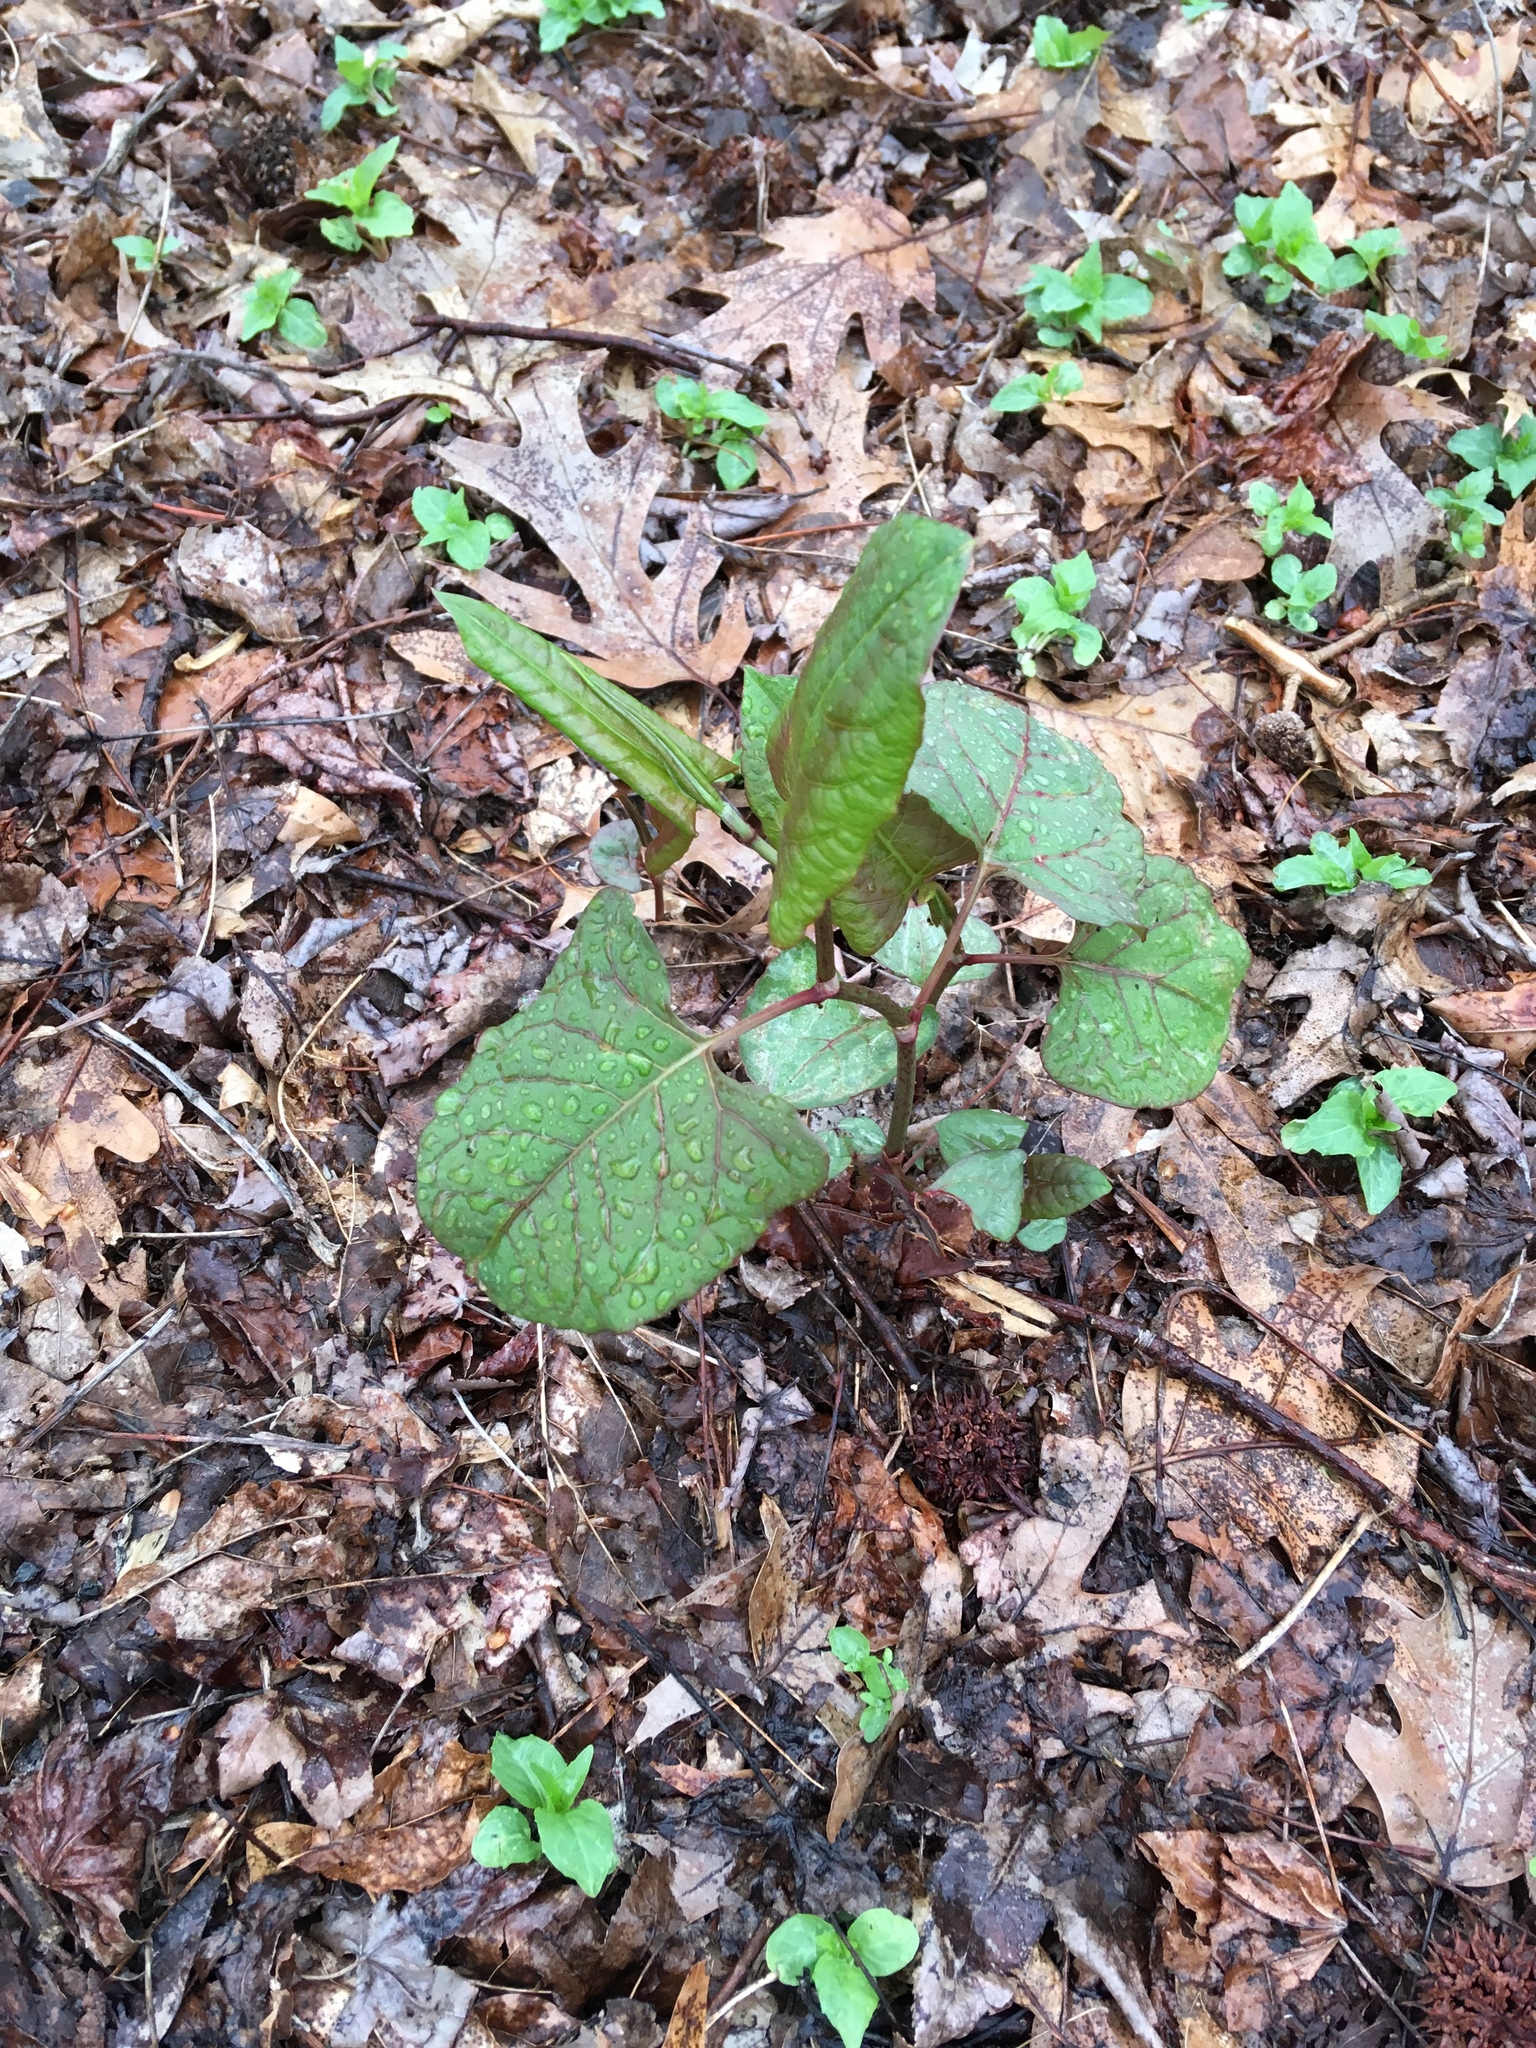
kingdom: Plantae
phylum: Tracheophyta
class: Magnoliopsida
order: Caryophyllales
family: Polygonaceae
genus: Reynoutria
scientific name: Reynoutria japonica
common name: Japanese knotweed
